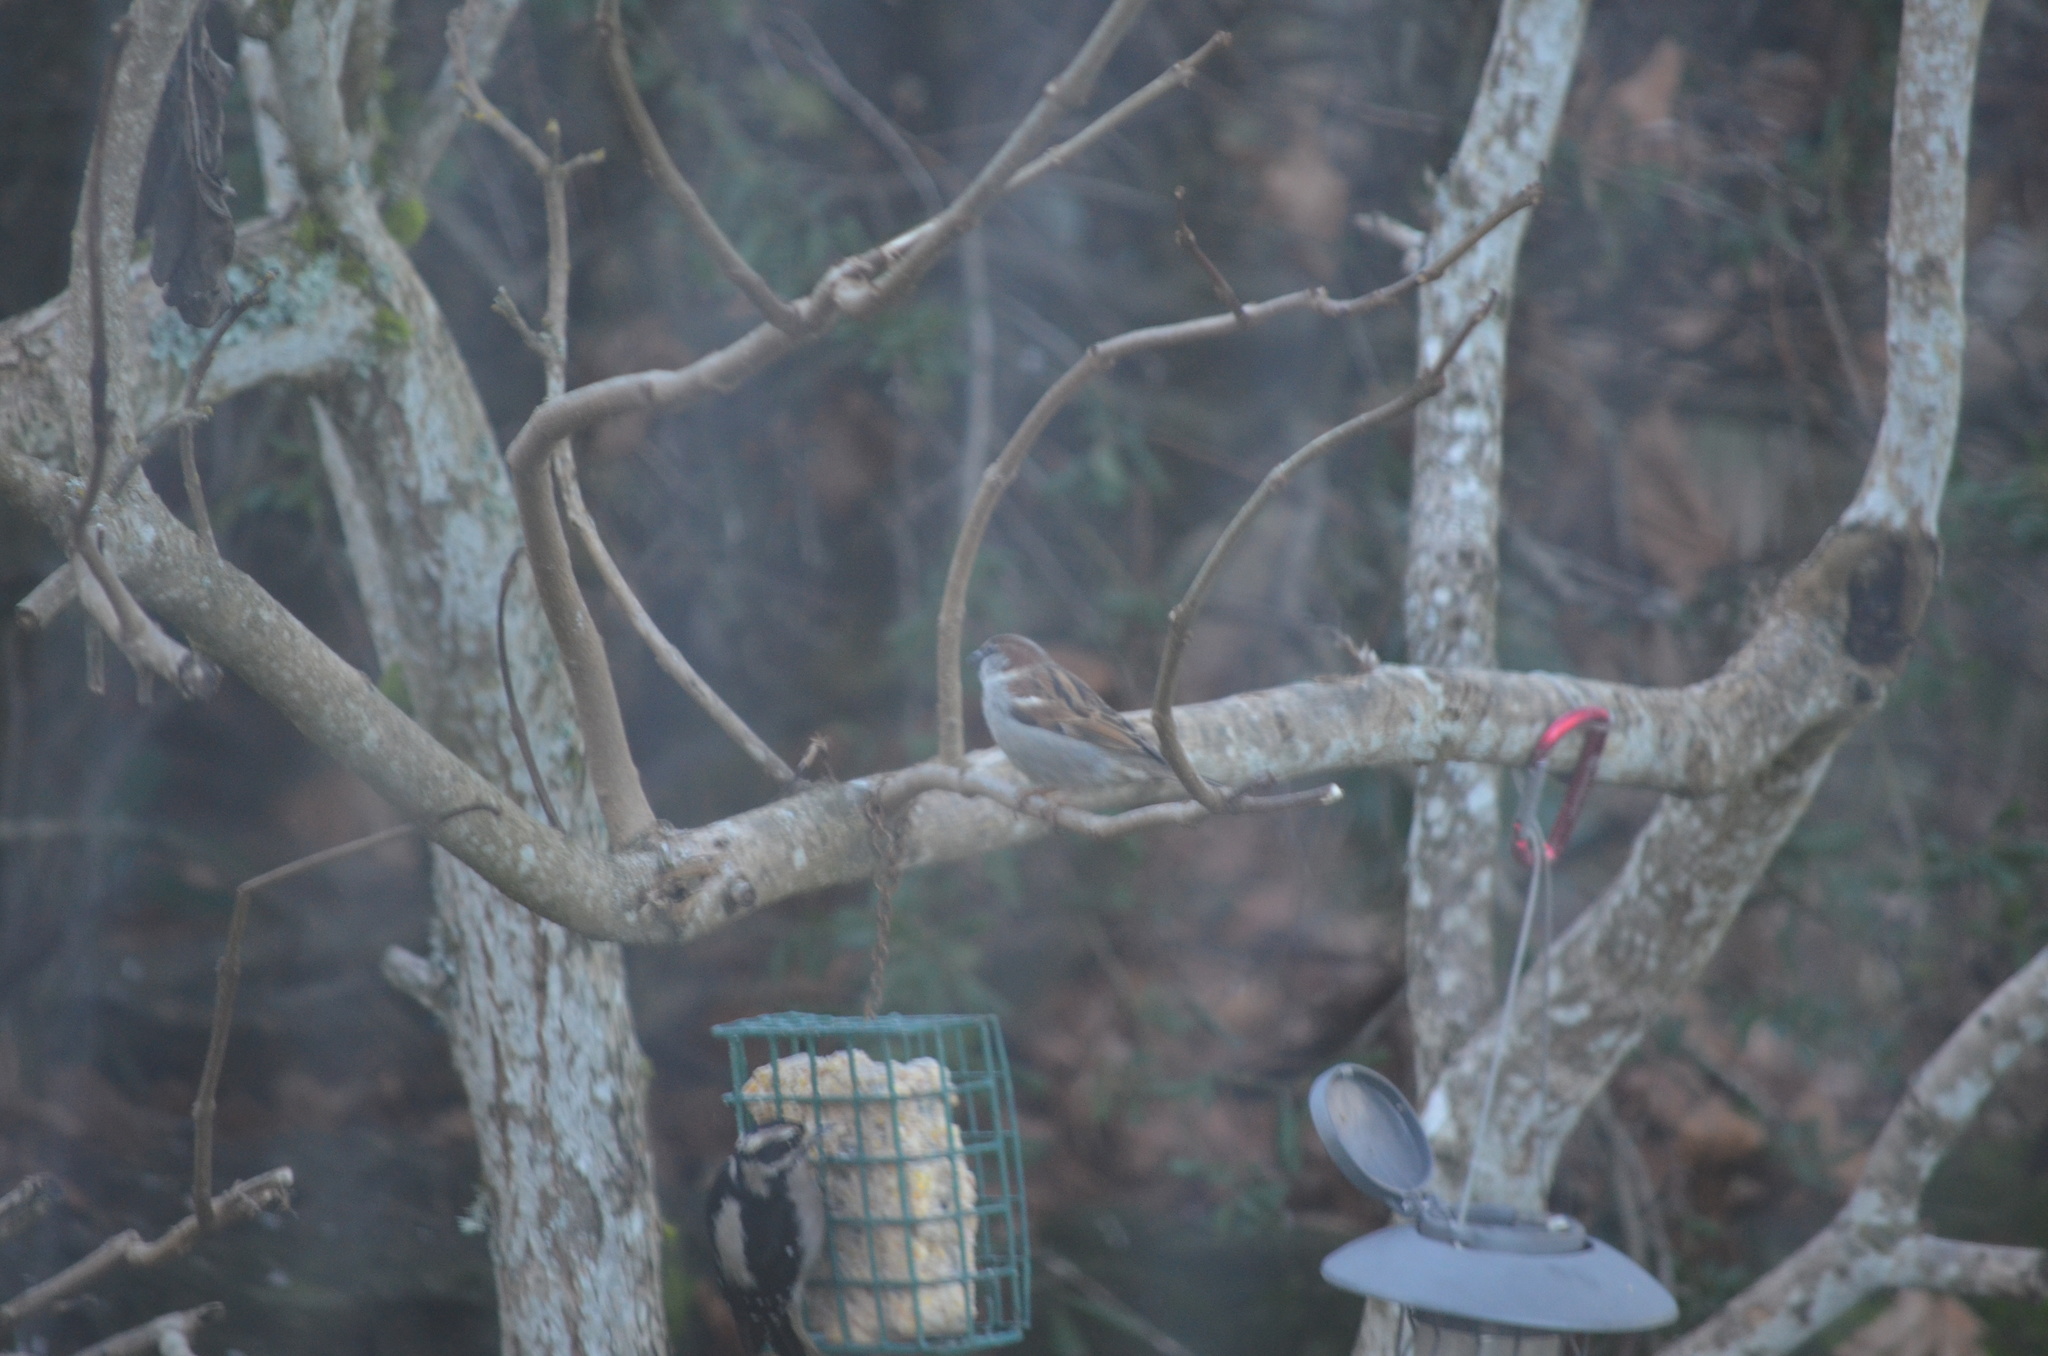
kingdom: Animalia
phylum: Chordata
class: Aves
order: Passeriformes
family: Passeridae
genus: Passer
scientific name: Passer domesticus
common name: House sparrow
